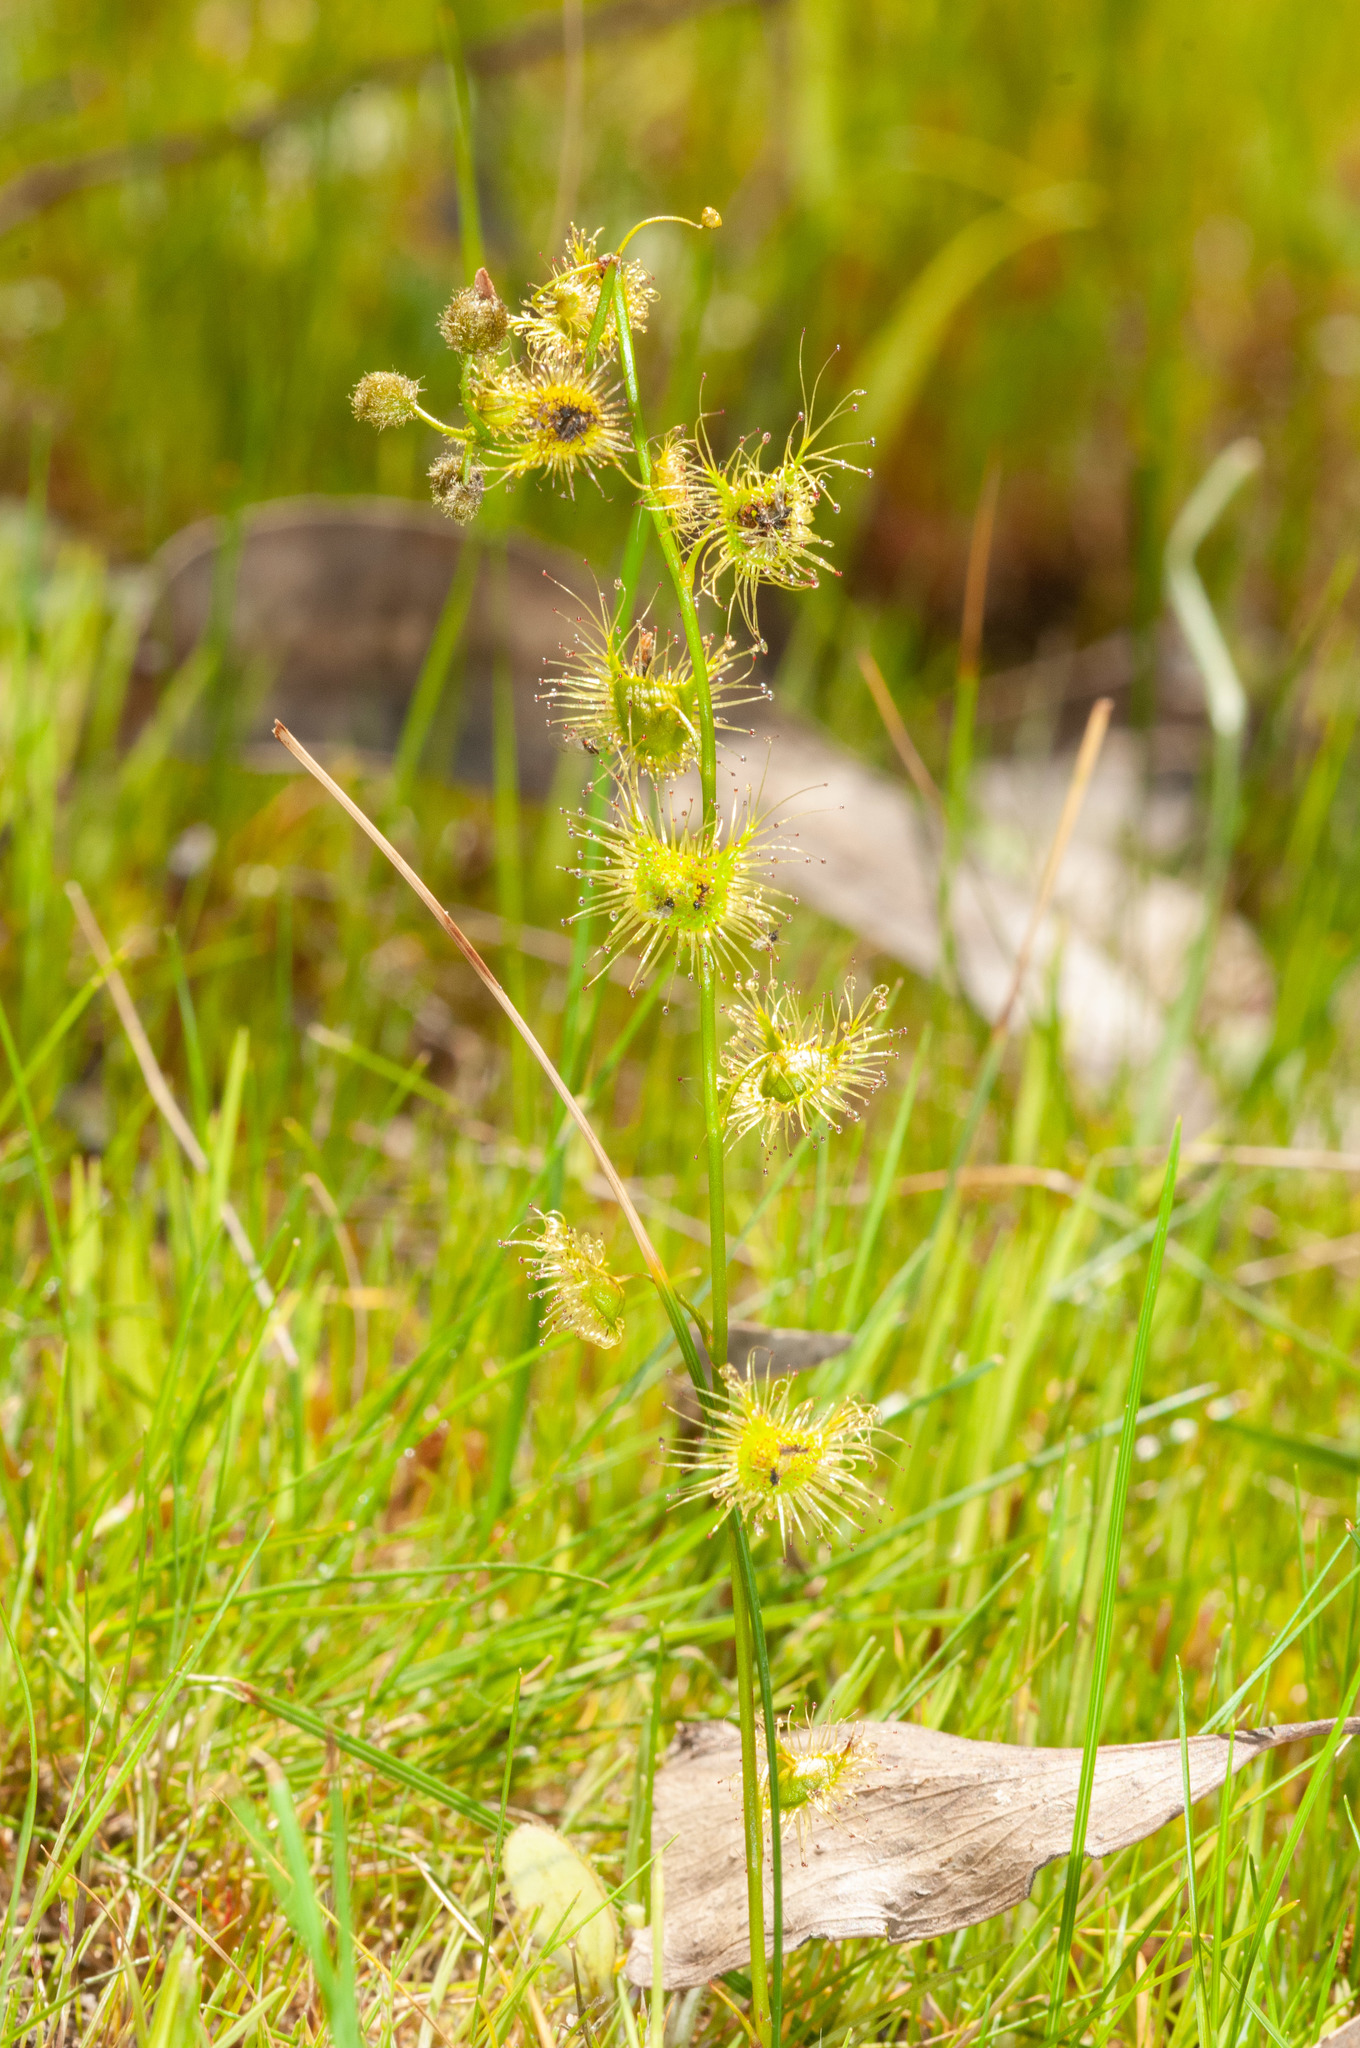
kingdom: Plantae
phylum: Tracheophyta
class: Magnoliopsida
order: Caryophyllales
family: Droseraceae
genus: Drosera
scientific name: Drosera gunniana
